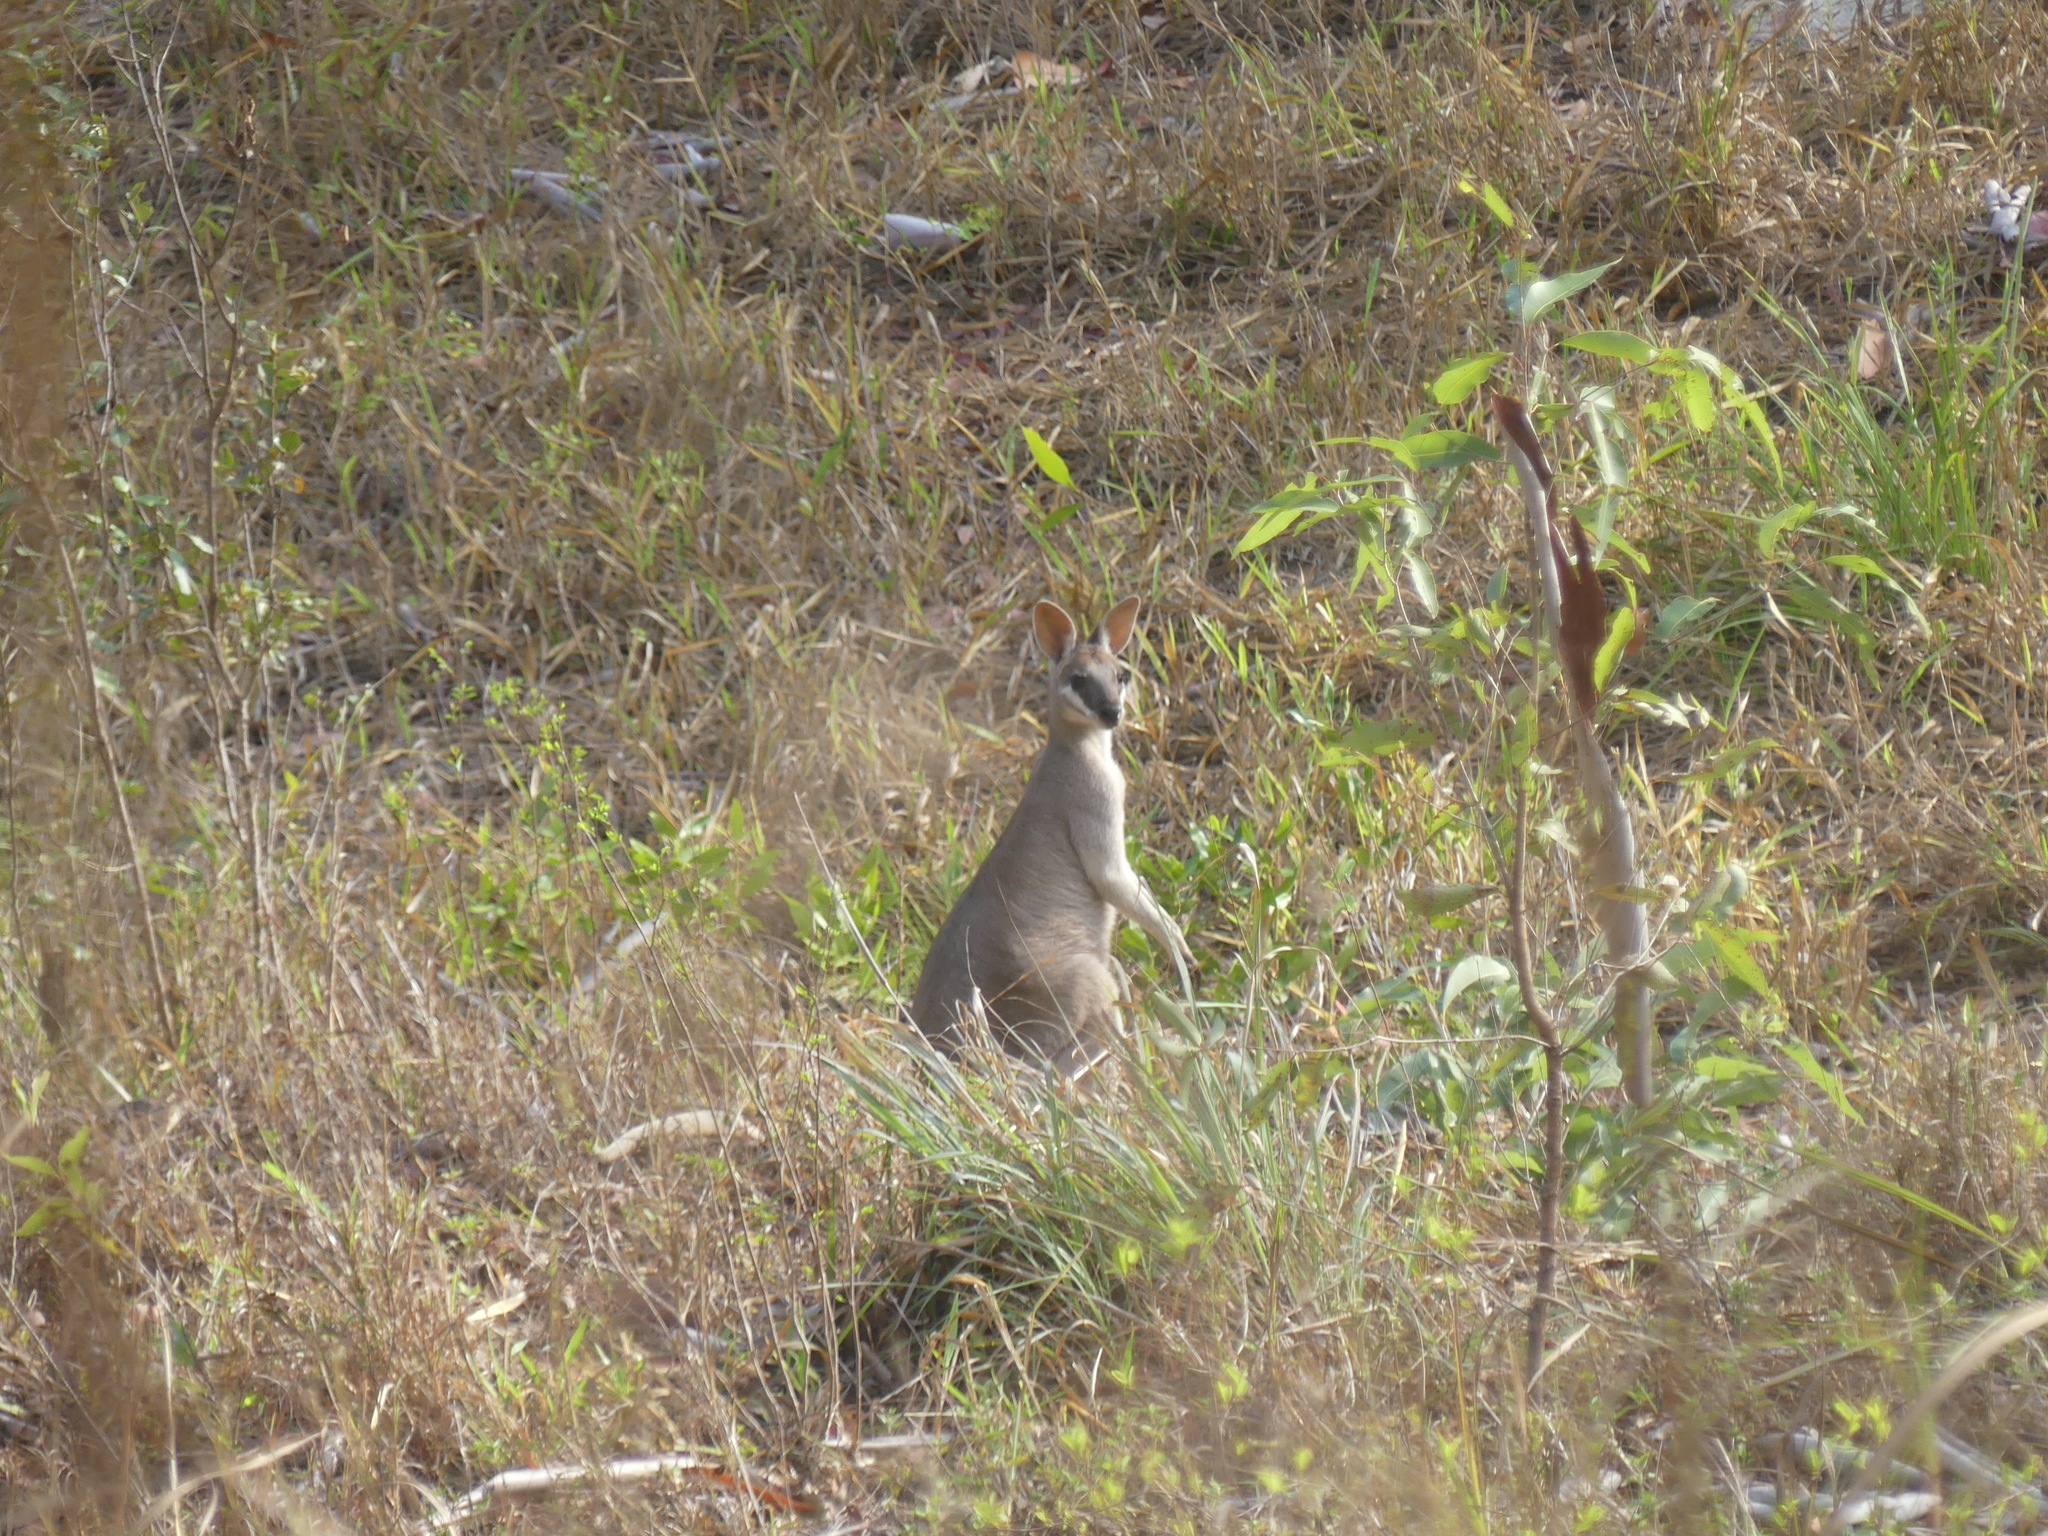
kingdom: Animalia
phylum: Chordata
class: Mammalia
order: Diprotodontia
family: Macropodidae
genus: Notamacropus
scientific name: Notamacropus parryi
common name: Whip-tailed wallaby
